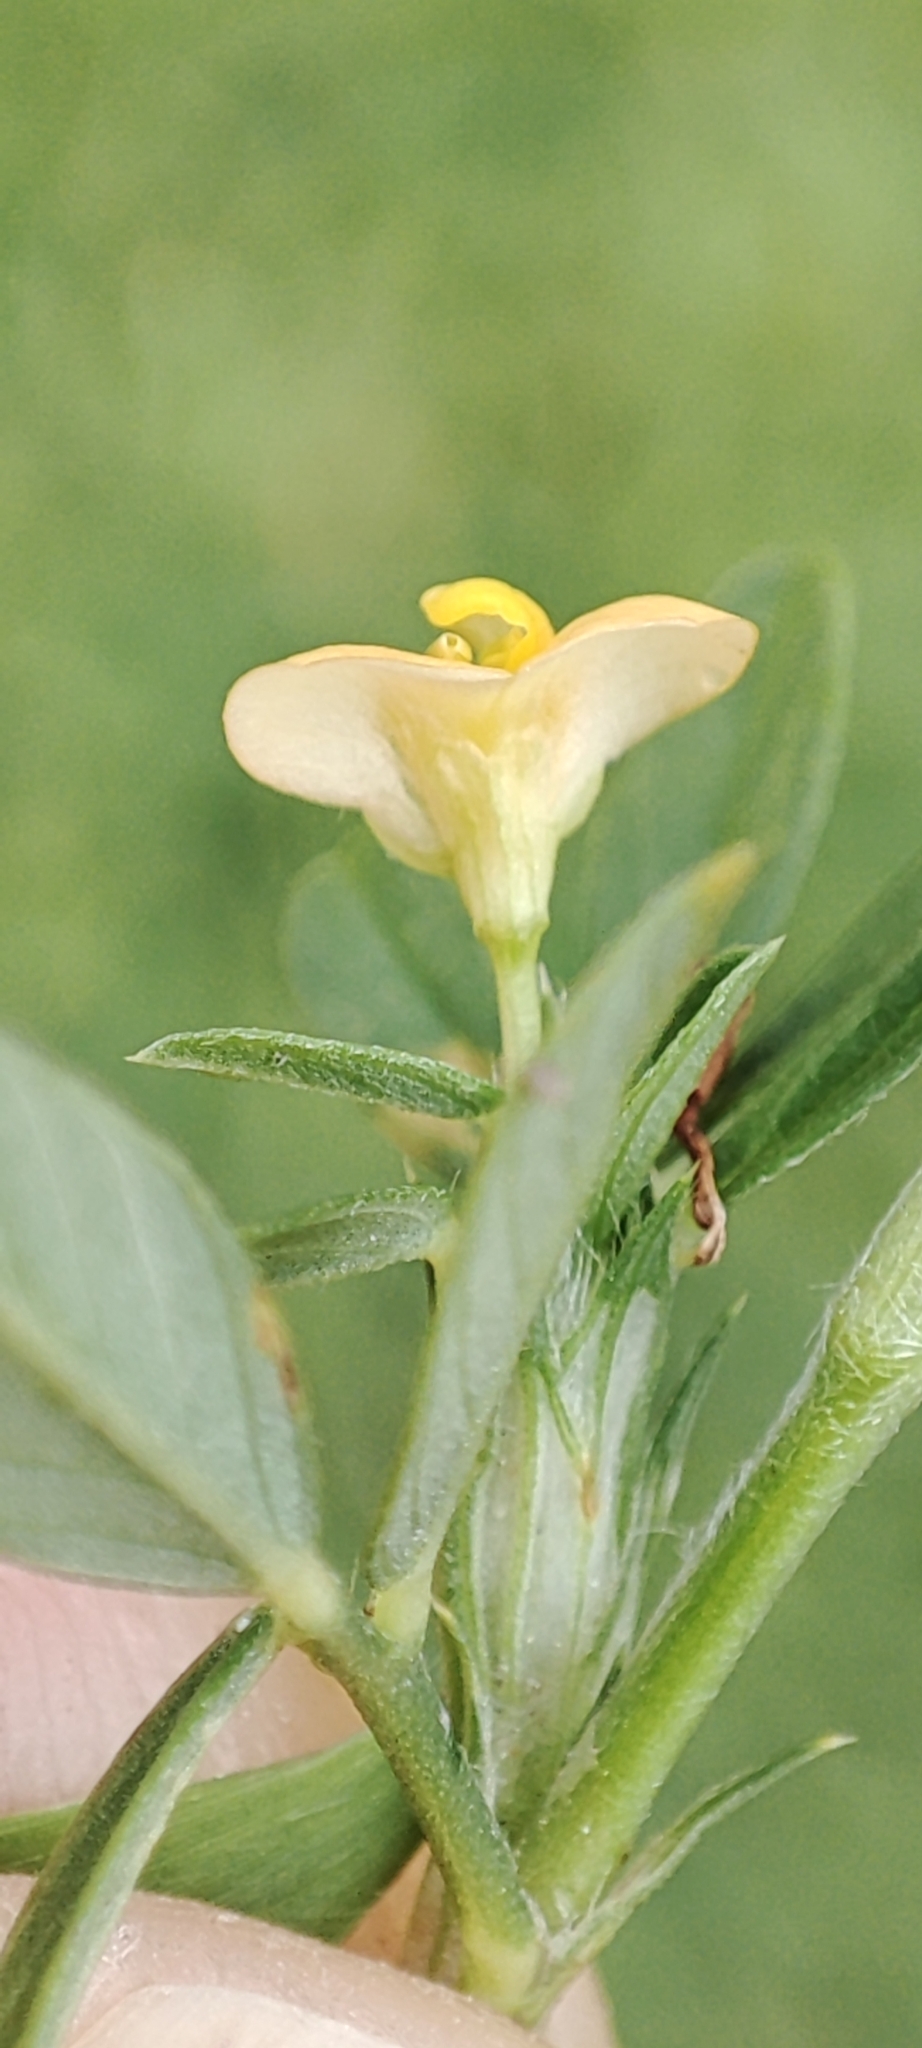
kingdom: Plantae
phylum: Tracheophyta
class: Magnoliopsida
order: Fabales
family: Fabaceae
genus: Stylosanthes
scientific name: Stylosanthes hamata
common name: Cheesytoes
